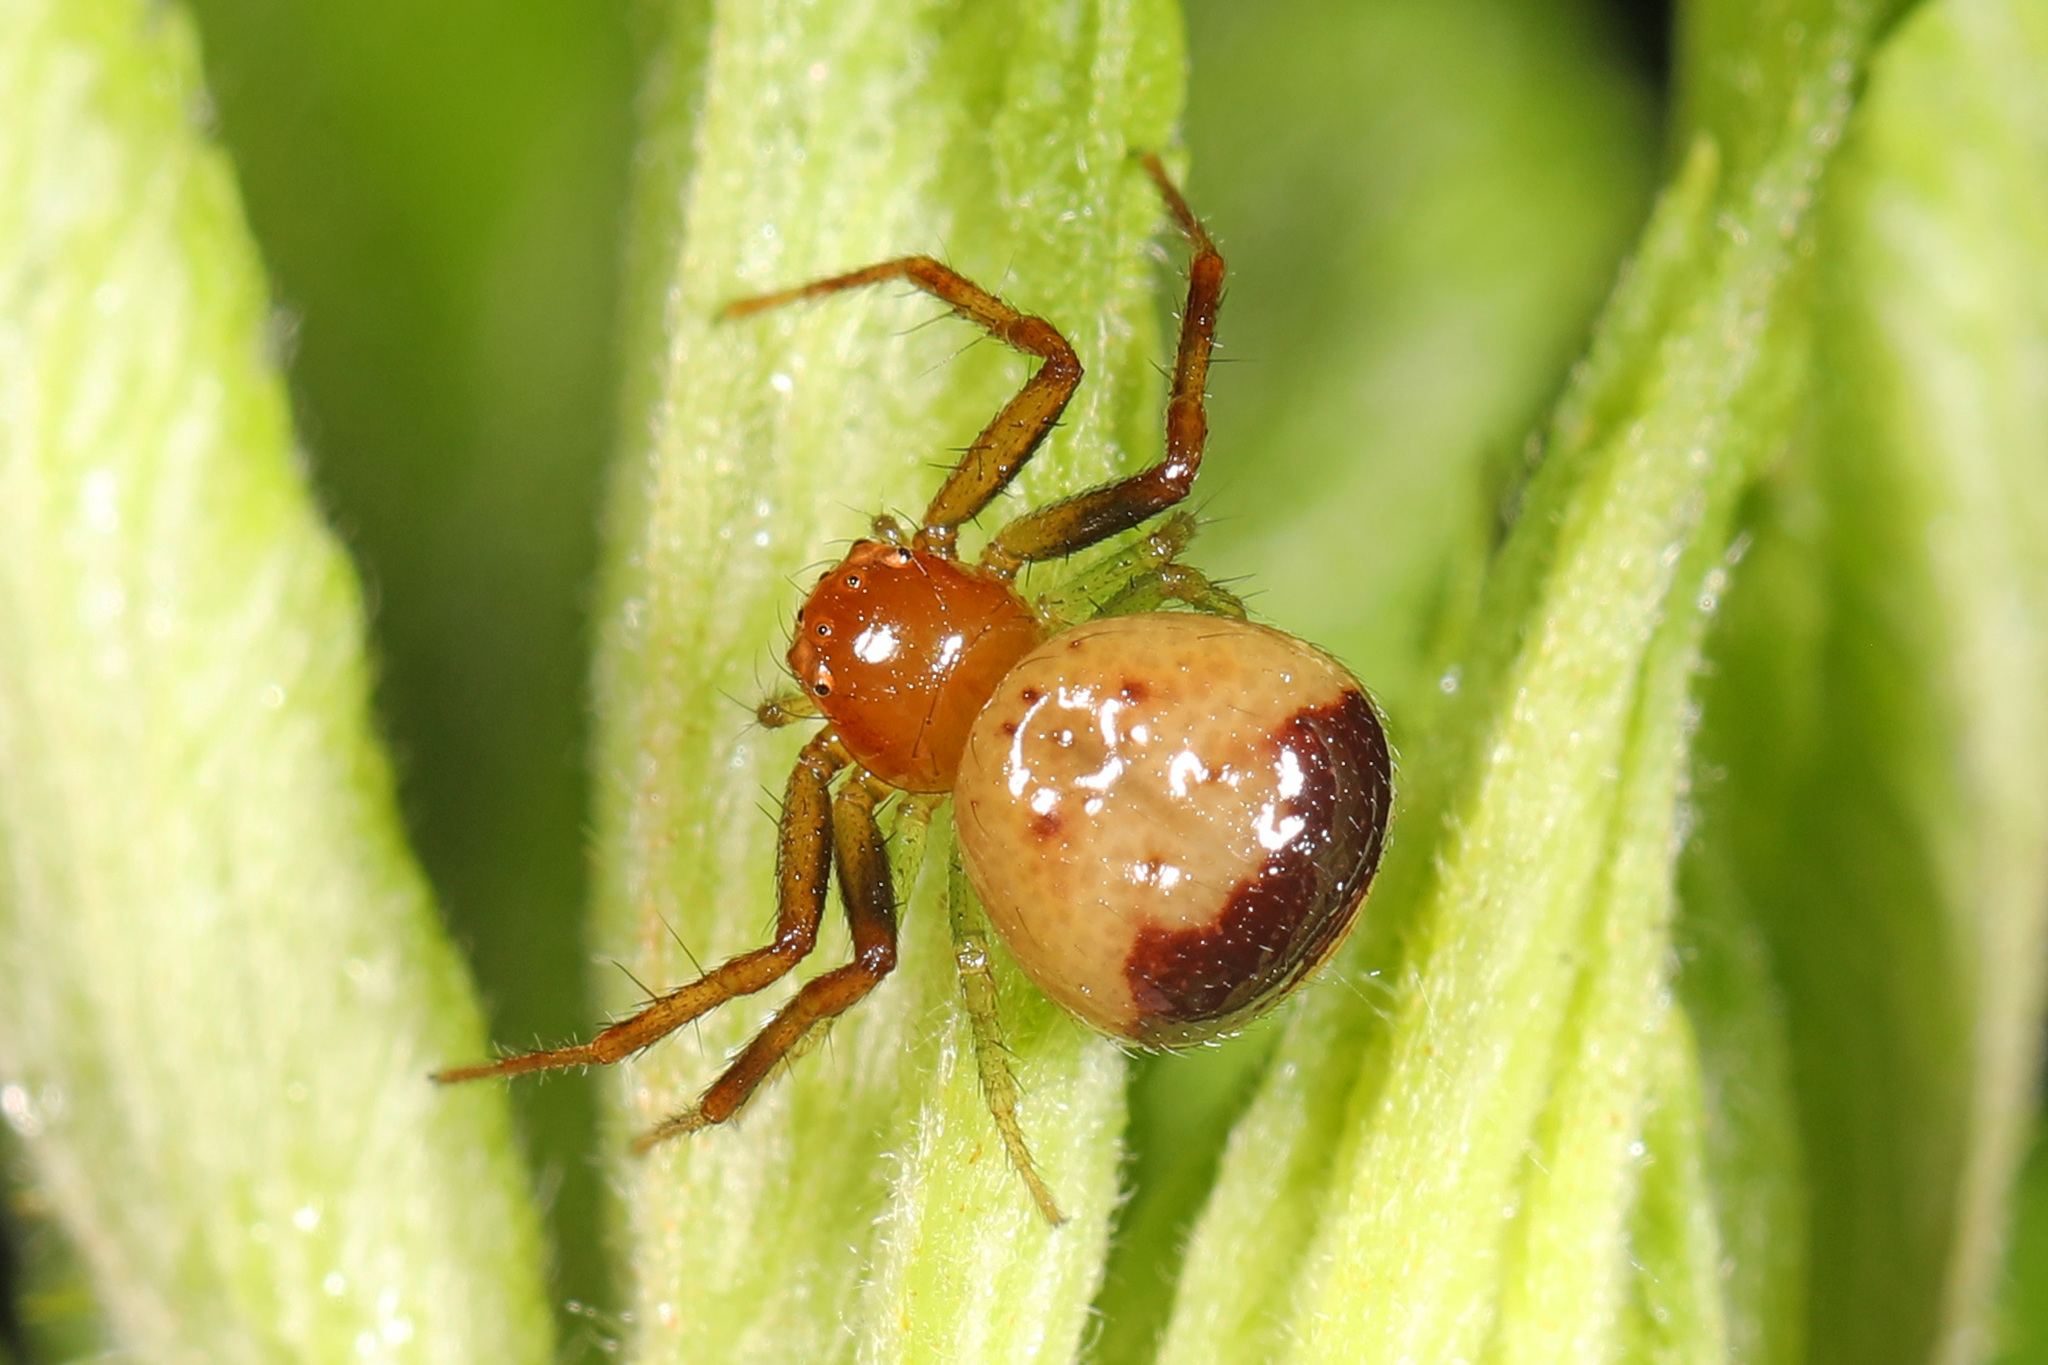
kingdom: Animalia
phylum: Arthropoda
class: Arachnida
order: Araneae
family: Thomisidae
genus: Synema
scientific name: Synema parvulum
